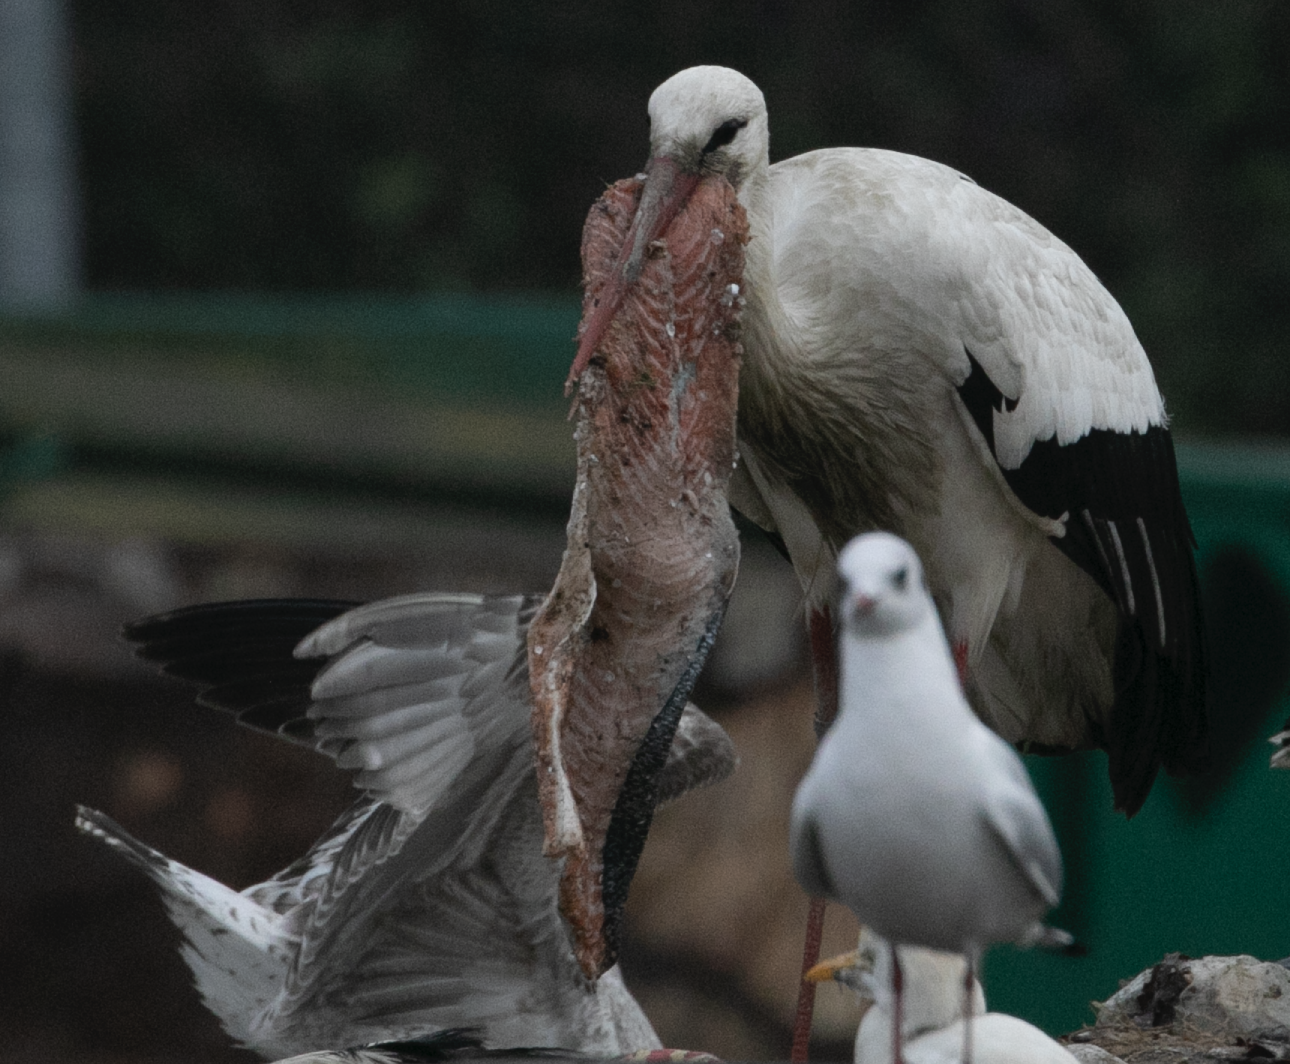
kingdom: Animalia
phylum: Chordata
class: Aves
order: Ciconiiformes
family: Ciconiidae
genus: Ciconia
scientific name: Ciconia ciconia
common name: White stork
